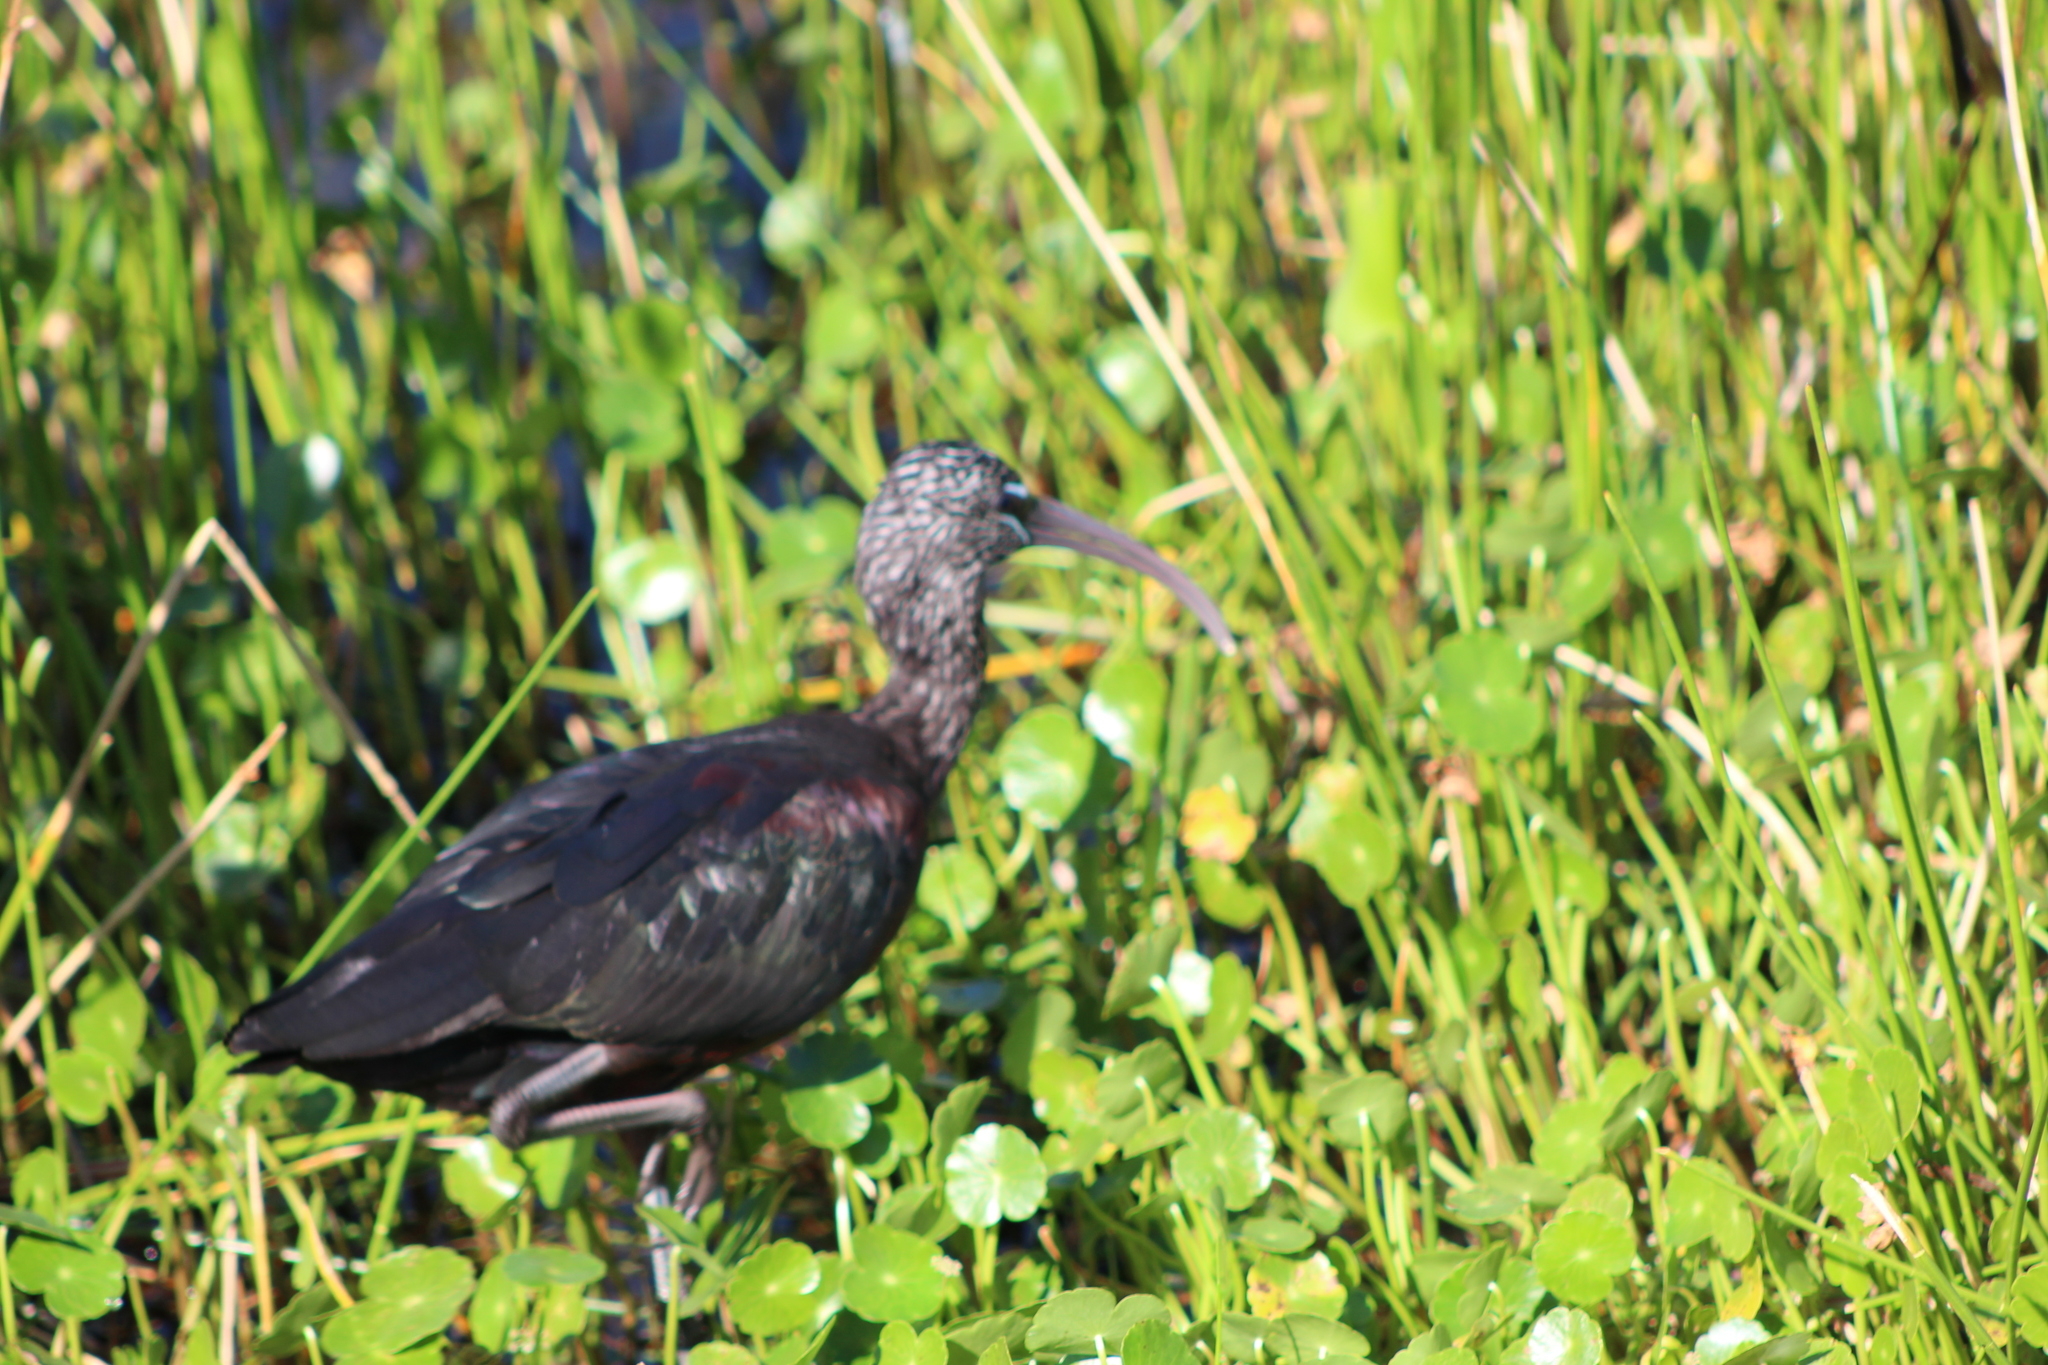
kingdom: Animalia
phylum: Chordata
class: Aves
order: Pelecaniformes
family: Threskiornithidae
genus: Plegadis
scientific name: Plegadis falcinellus
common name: Glossy ibis
